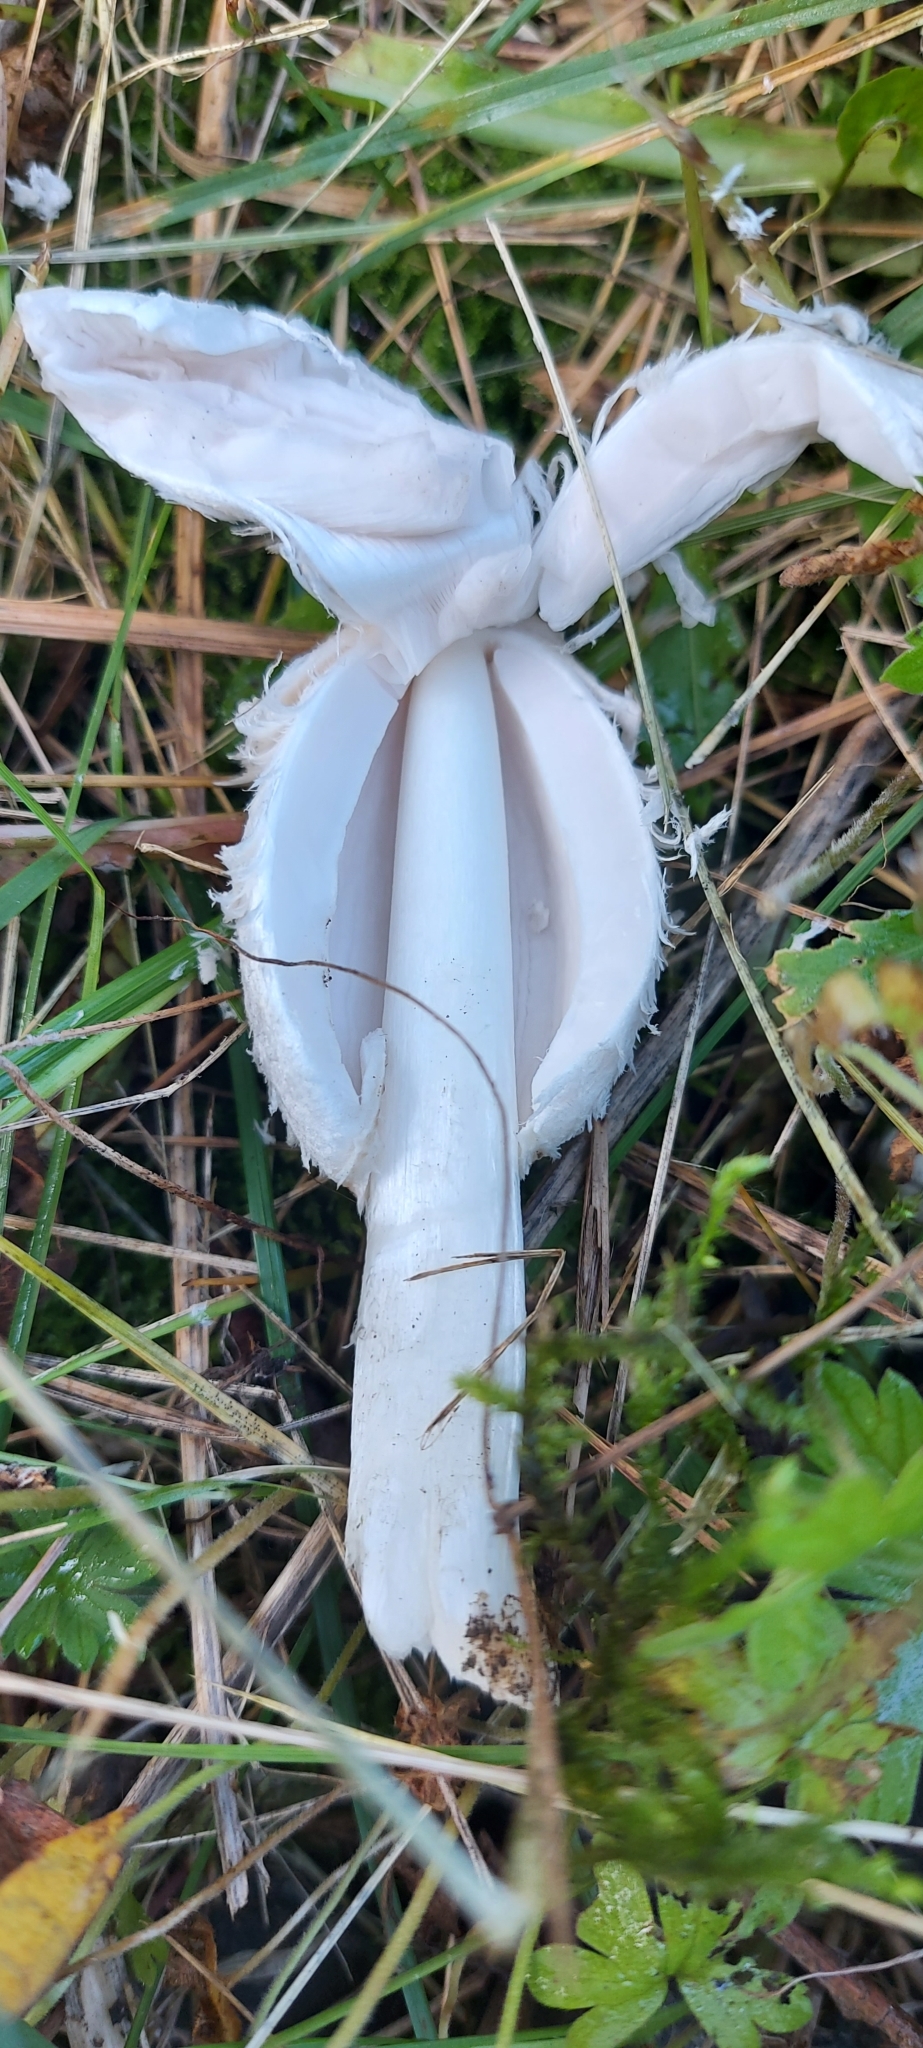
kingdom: Fungi
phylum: Basidiomycota
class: Agaricomycetes
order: Agaricales
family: Agaricaceae
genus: Coprinus
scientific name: Coprinus comatus
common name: Lawyer's wig
